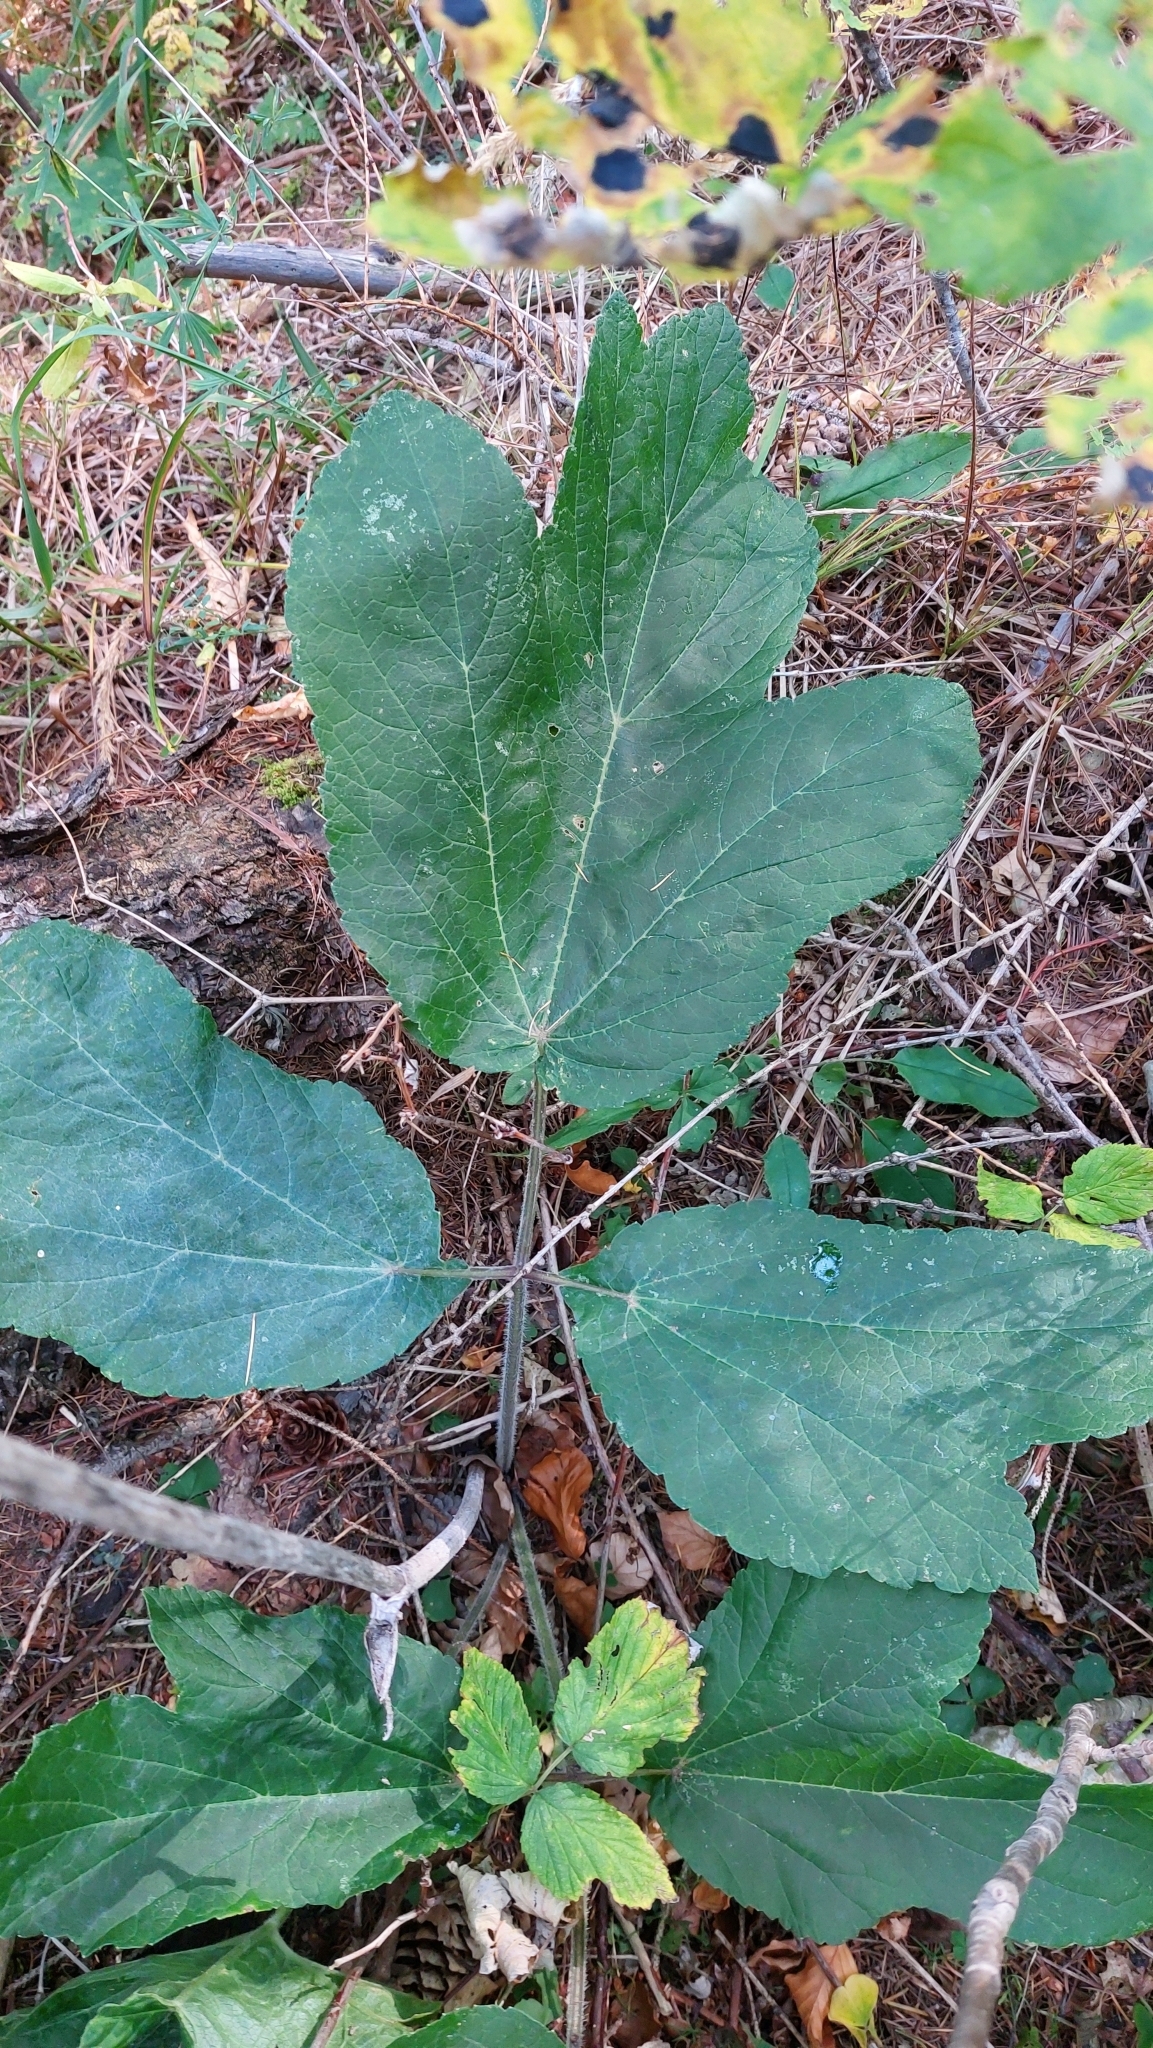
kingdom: Plantae
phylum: Tracheophyta
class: Magnoliopsida
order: Apiales
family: Apiaceae
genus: Heracleum
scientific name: Heracleum sphondylium
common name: Hogweed
